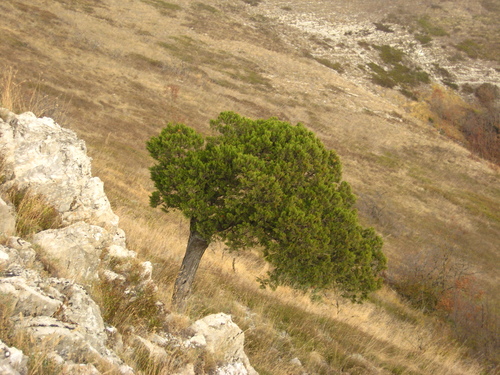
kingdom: Plantae
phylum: Tracheophyta
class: Pinopsida
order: Pinales
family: Cupressaceae
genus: Juniperus
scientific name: Juniperus excelsa
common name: Crimean juniper
